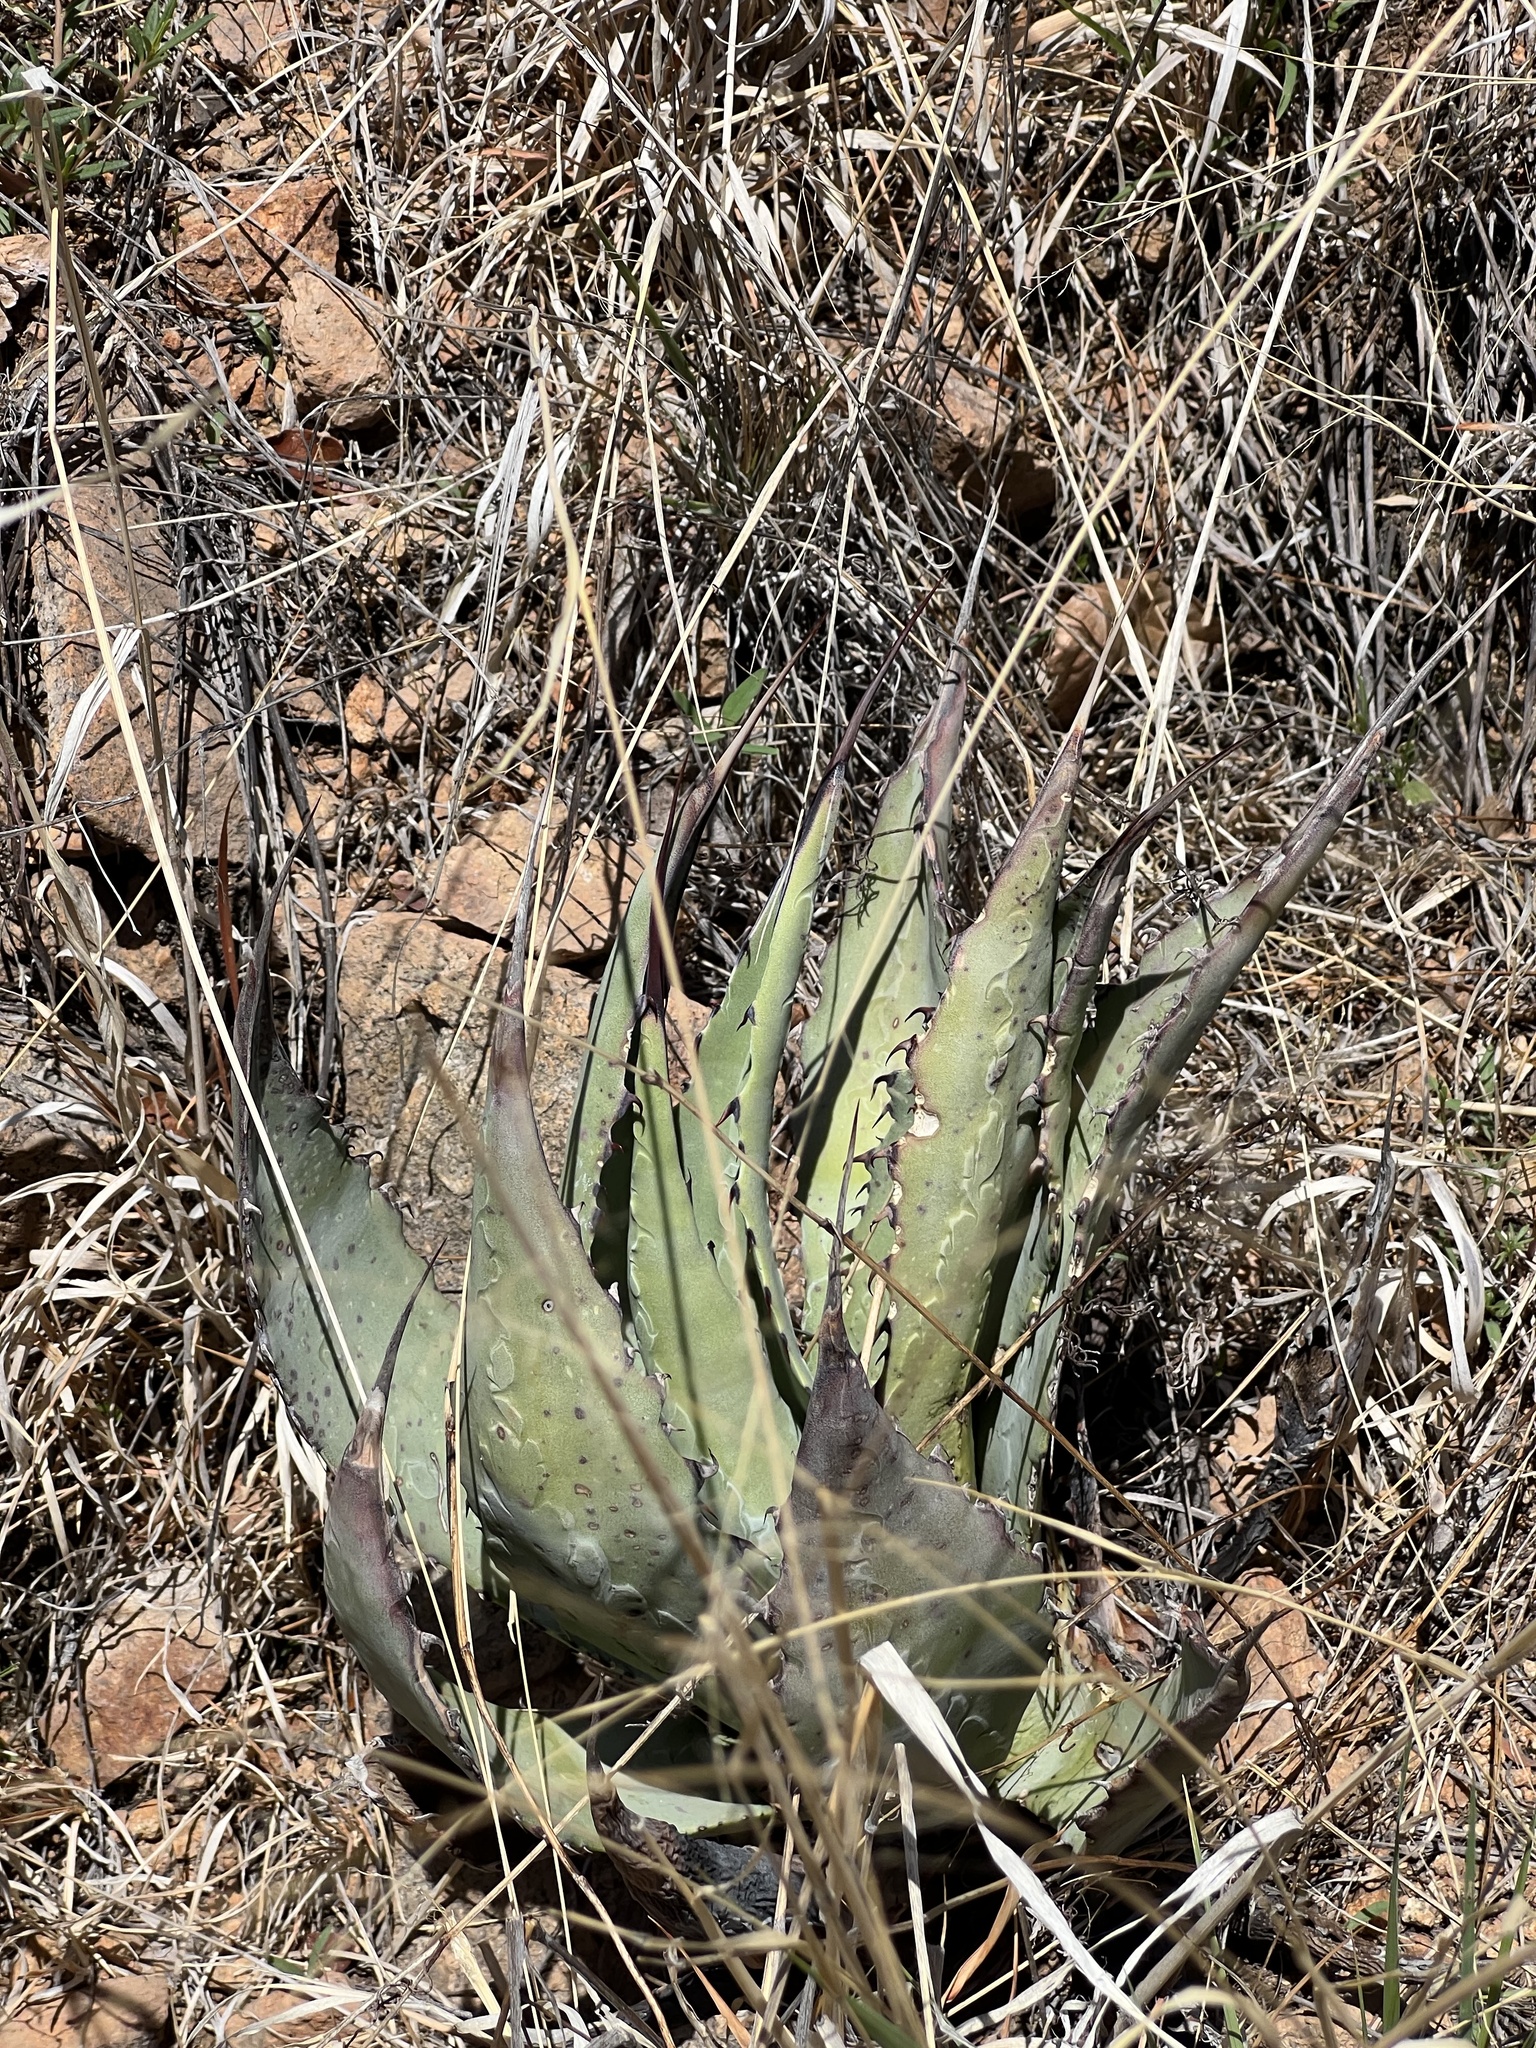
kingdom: Plantae
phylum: Tracheophyta
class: Liliopsida
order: Asparagales
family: Asparagaceae
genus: Agave
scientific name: Agave palmeri
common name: Palmer agave
